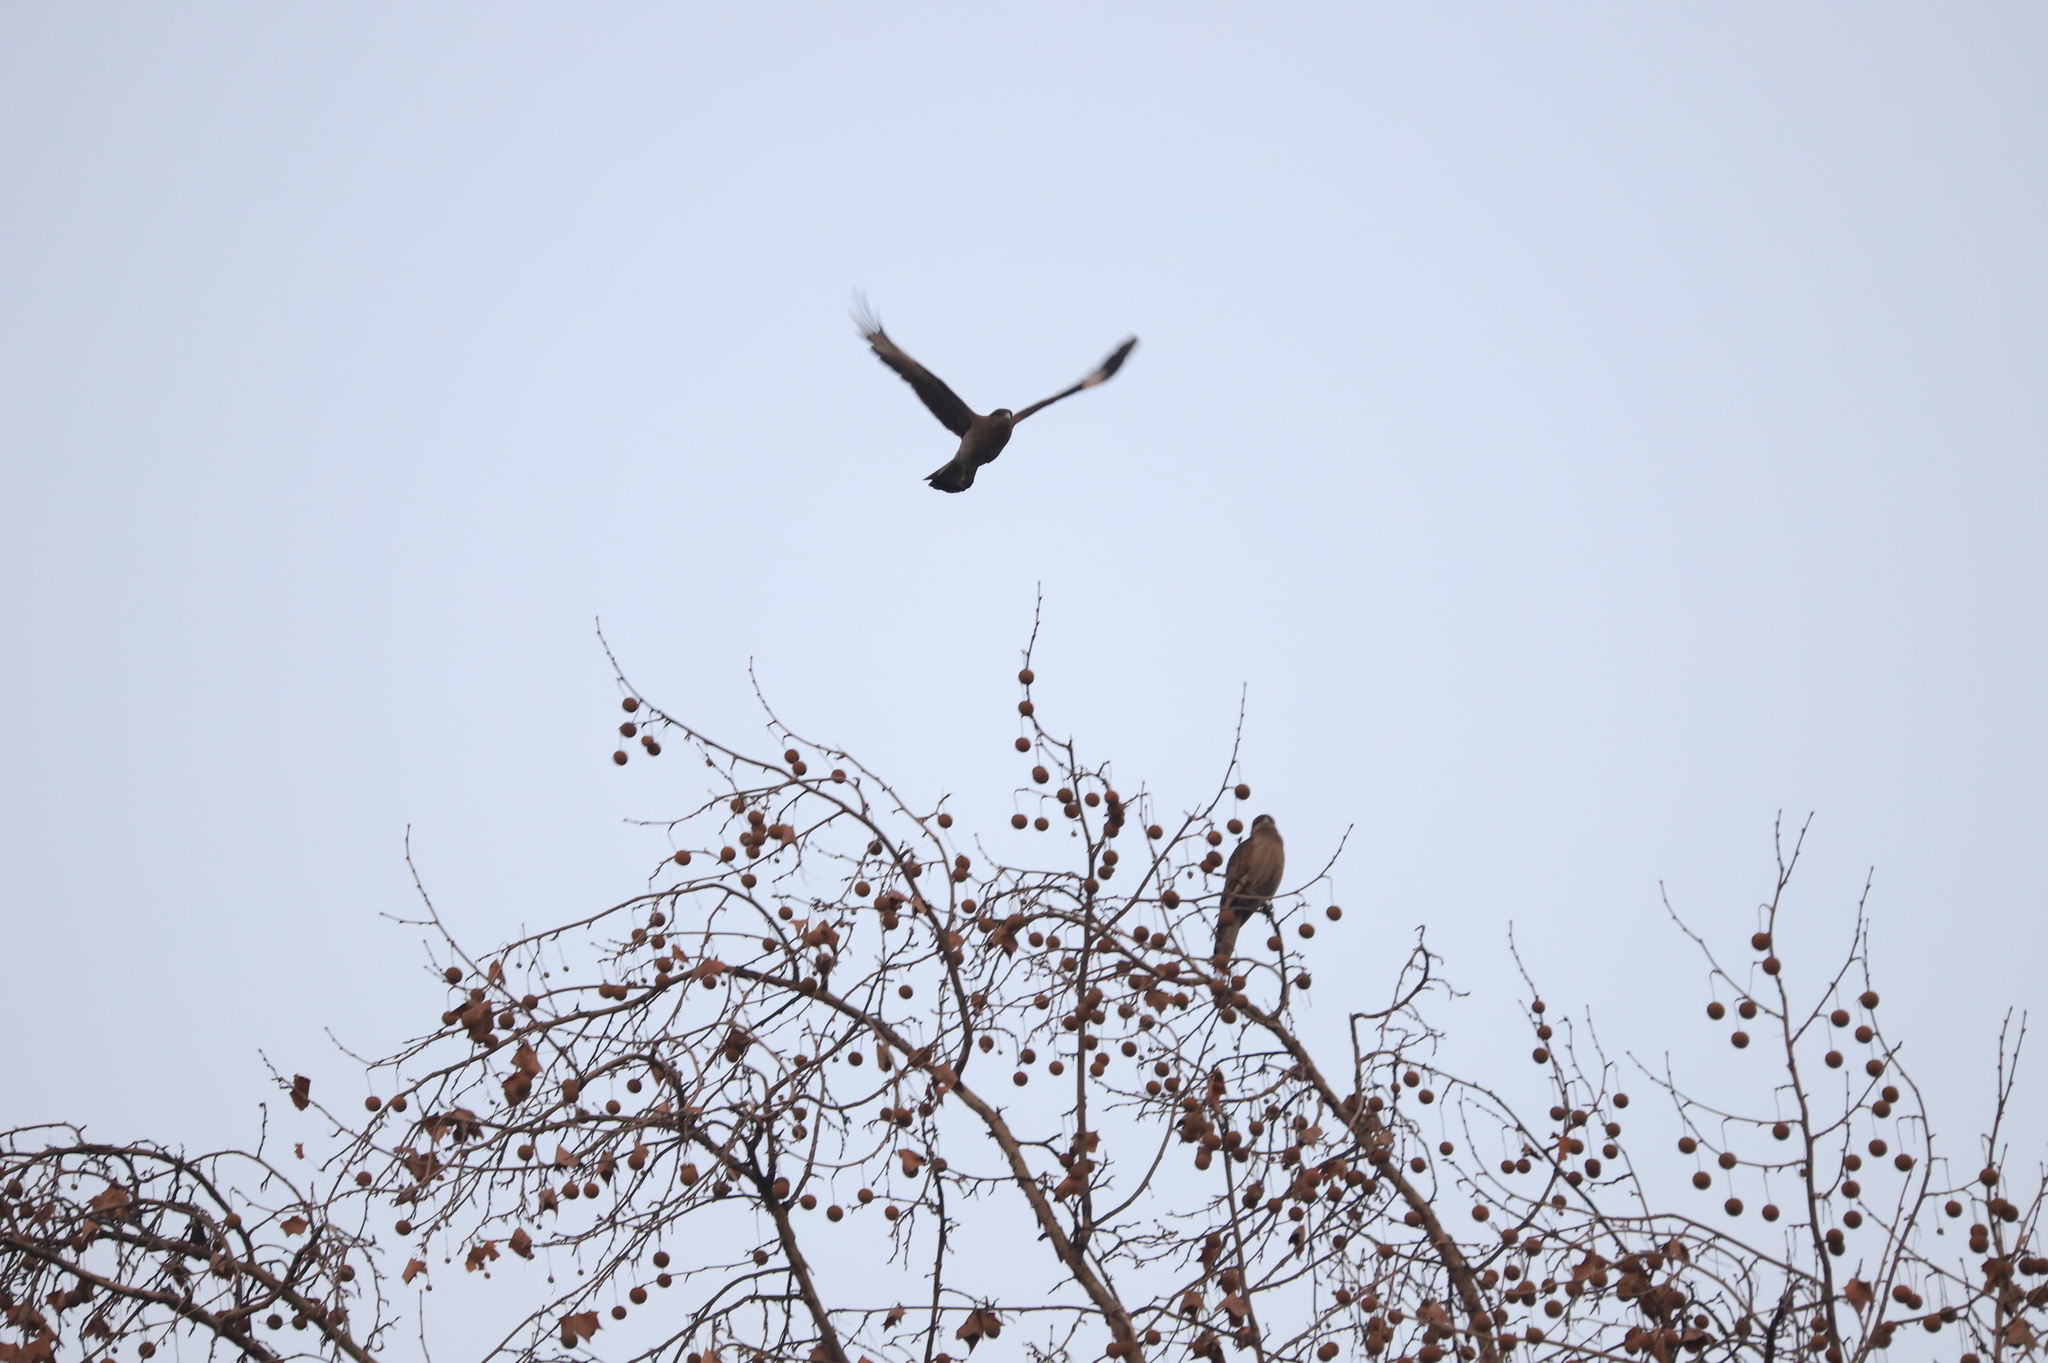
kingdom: Animalia
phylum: Chordata
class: Aves
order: Falconiformes
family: Falconidae
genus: Daptrius
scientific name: Daptrius
